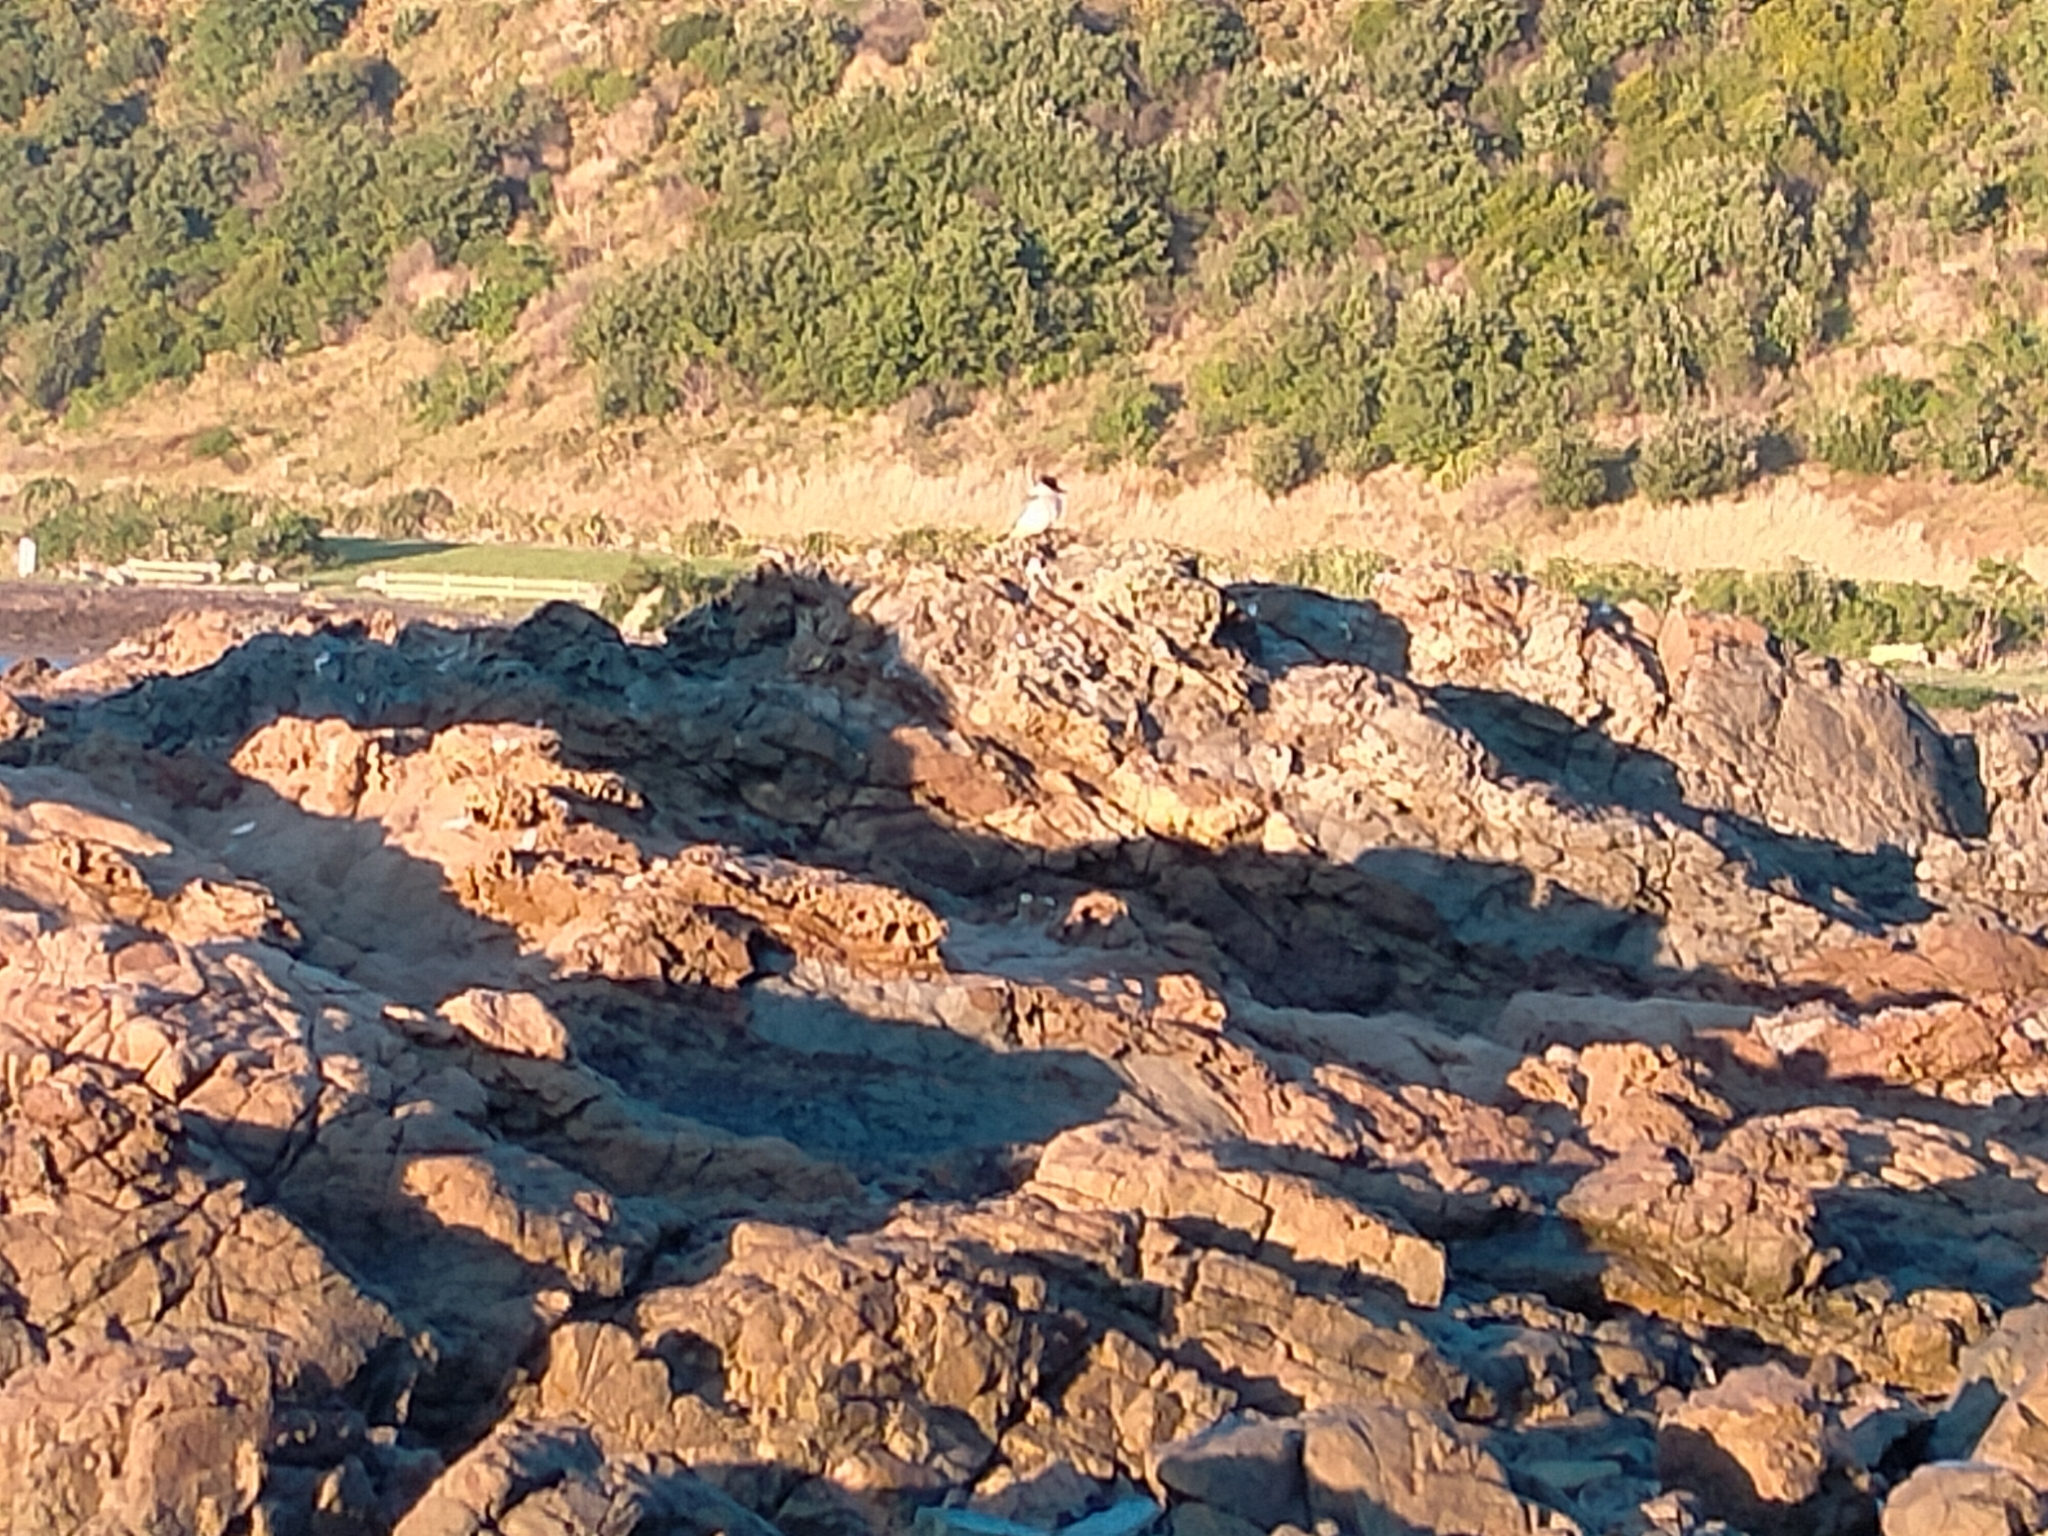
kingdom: Animalia
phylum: Chordata
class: Aves
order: Coraciiformes
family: Alcedinidae
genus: Todiramphus
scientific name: Todiramphus sanctus
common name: Sacred kingfisher
